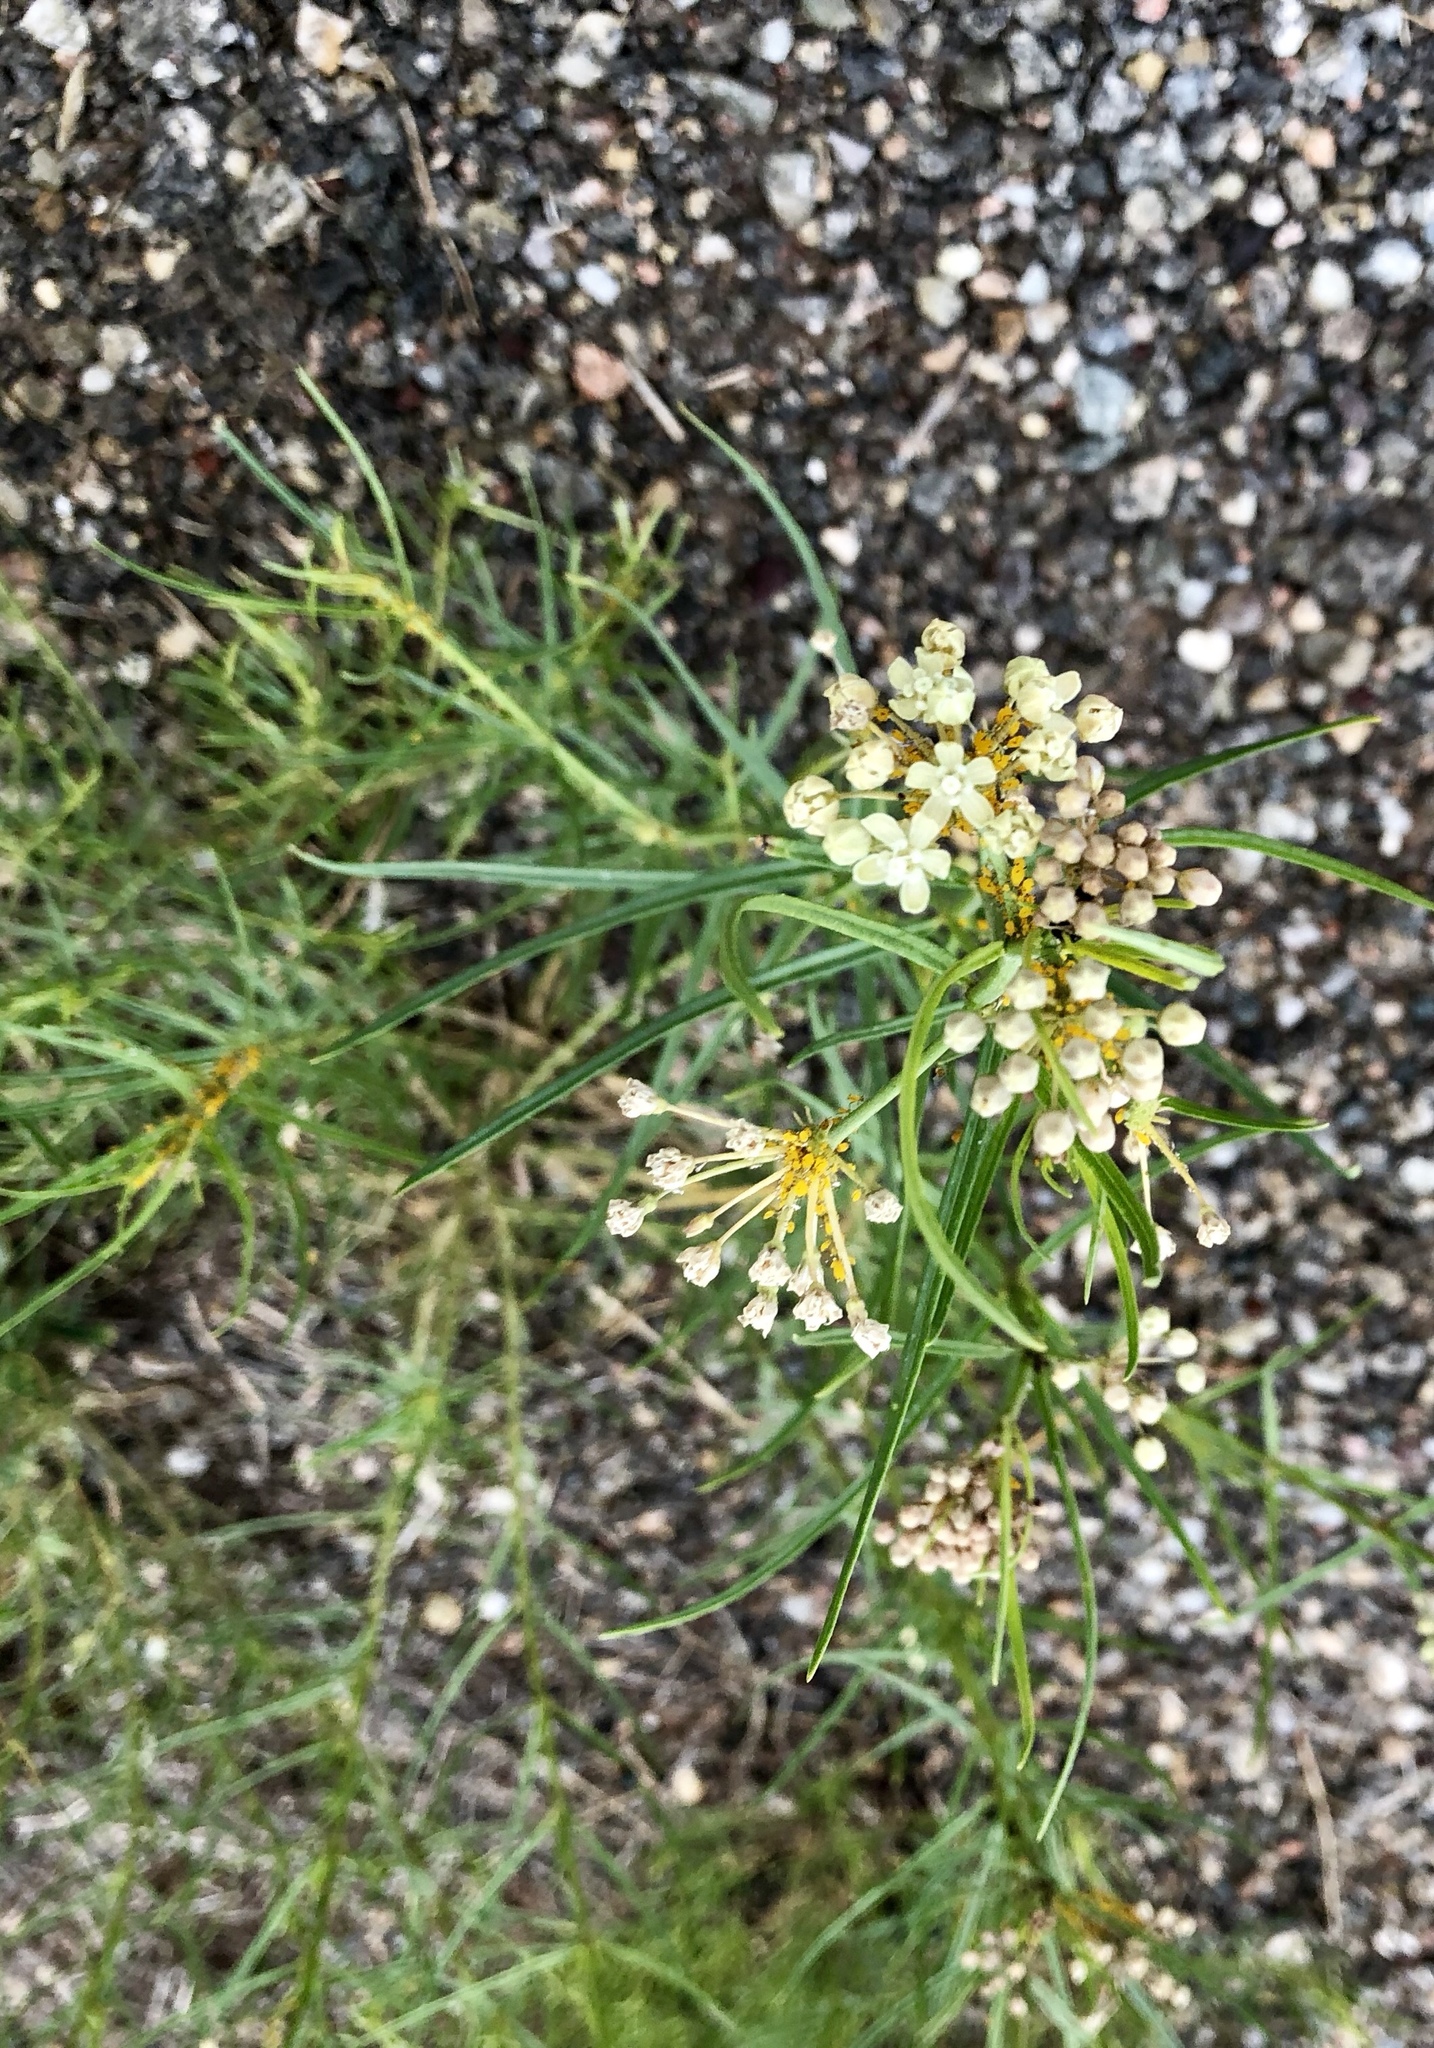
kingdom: Plantae
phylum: Tracheophyta
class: Magnoliopsida
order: Gentianales
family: Apocynaceae
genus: Asclepias
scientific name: Asclepias subverticillata
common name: Horsetail milkweed
